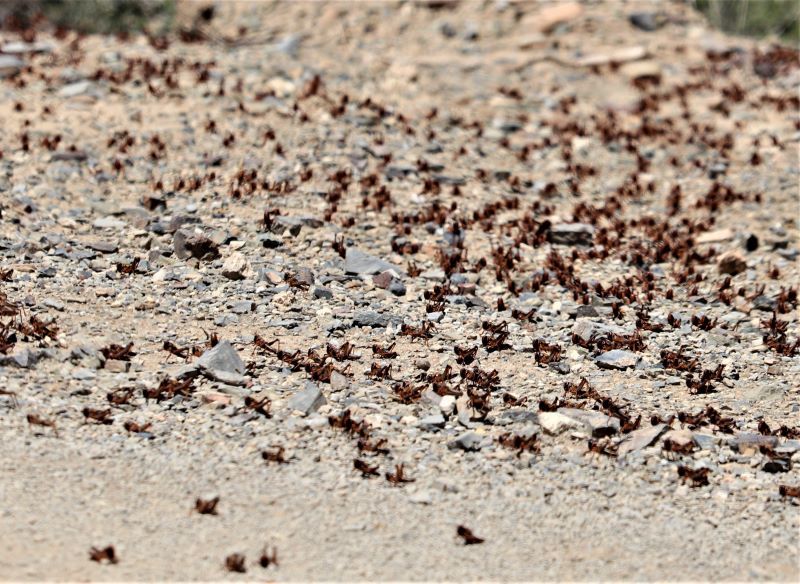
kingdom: Animalia
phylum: Arthropoda
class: Insecta
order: Orthoptera
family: Acrididae
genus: Locustana
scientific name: Locustana pardalina
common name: Brown locust
